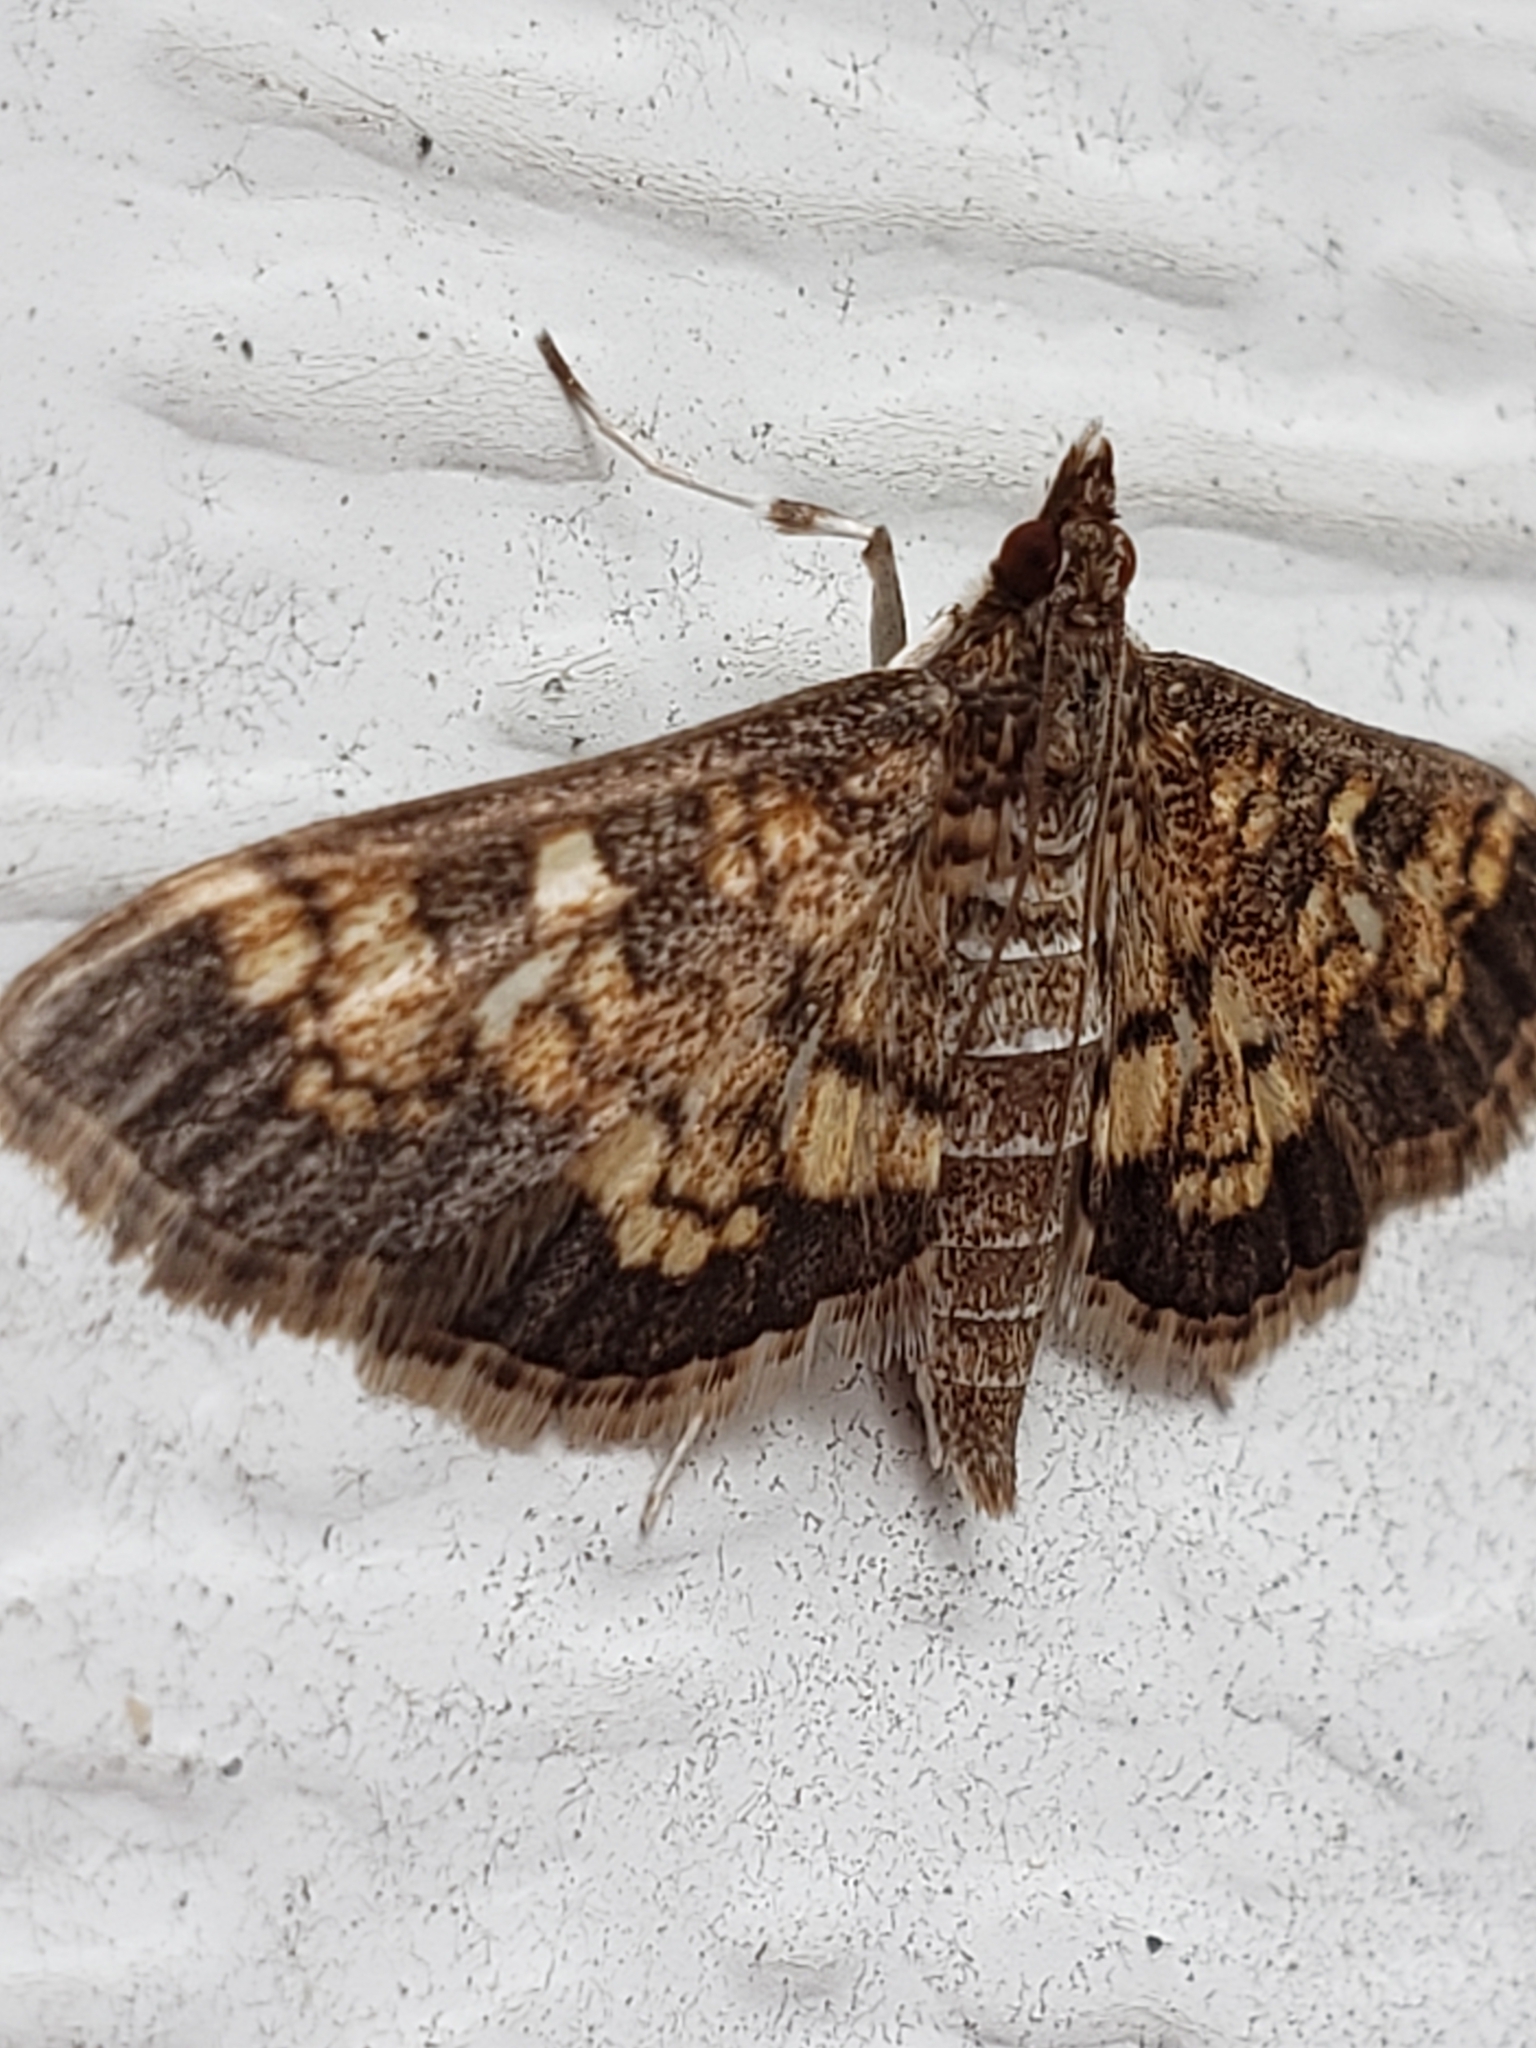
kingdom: Animalia
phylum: Arthropoda
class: Insecta
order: Lepidoptera
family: Crambidae
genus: Epipagis
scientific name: Epipagis adipaloides
